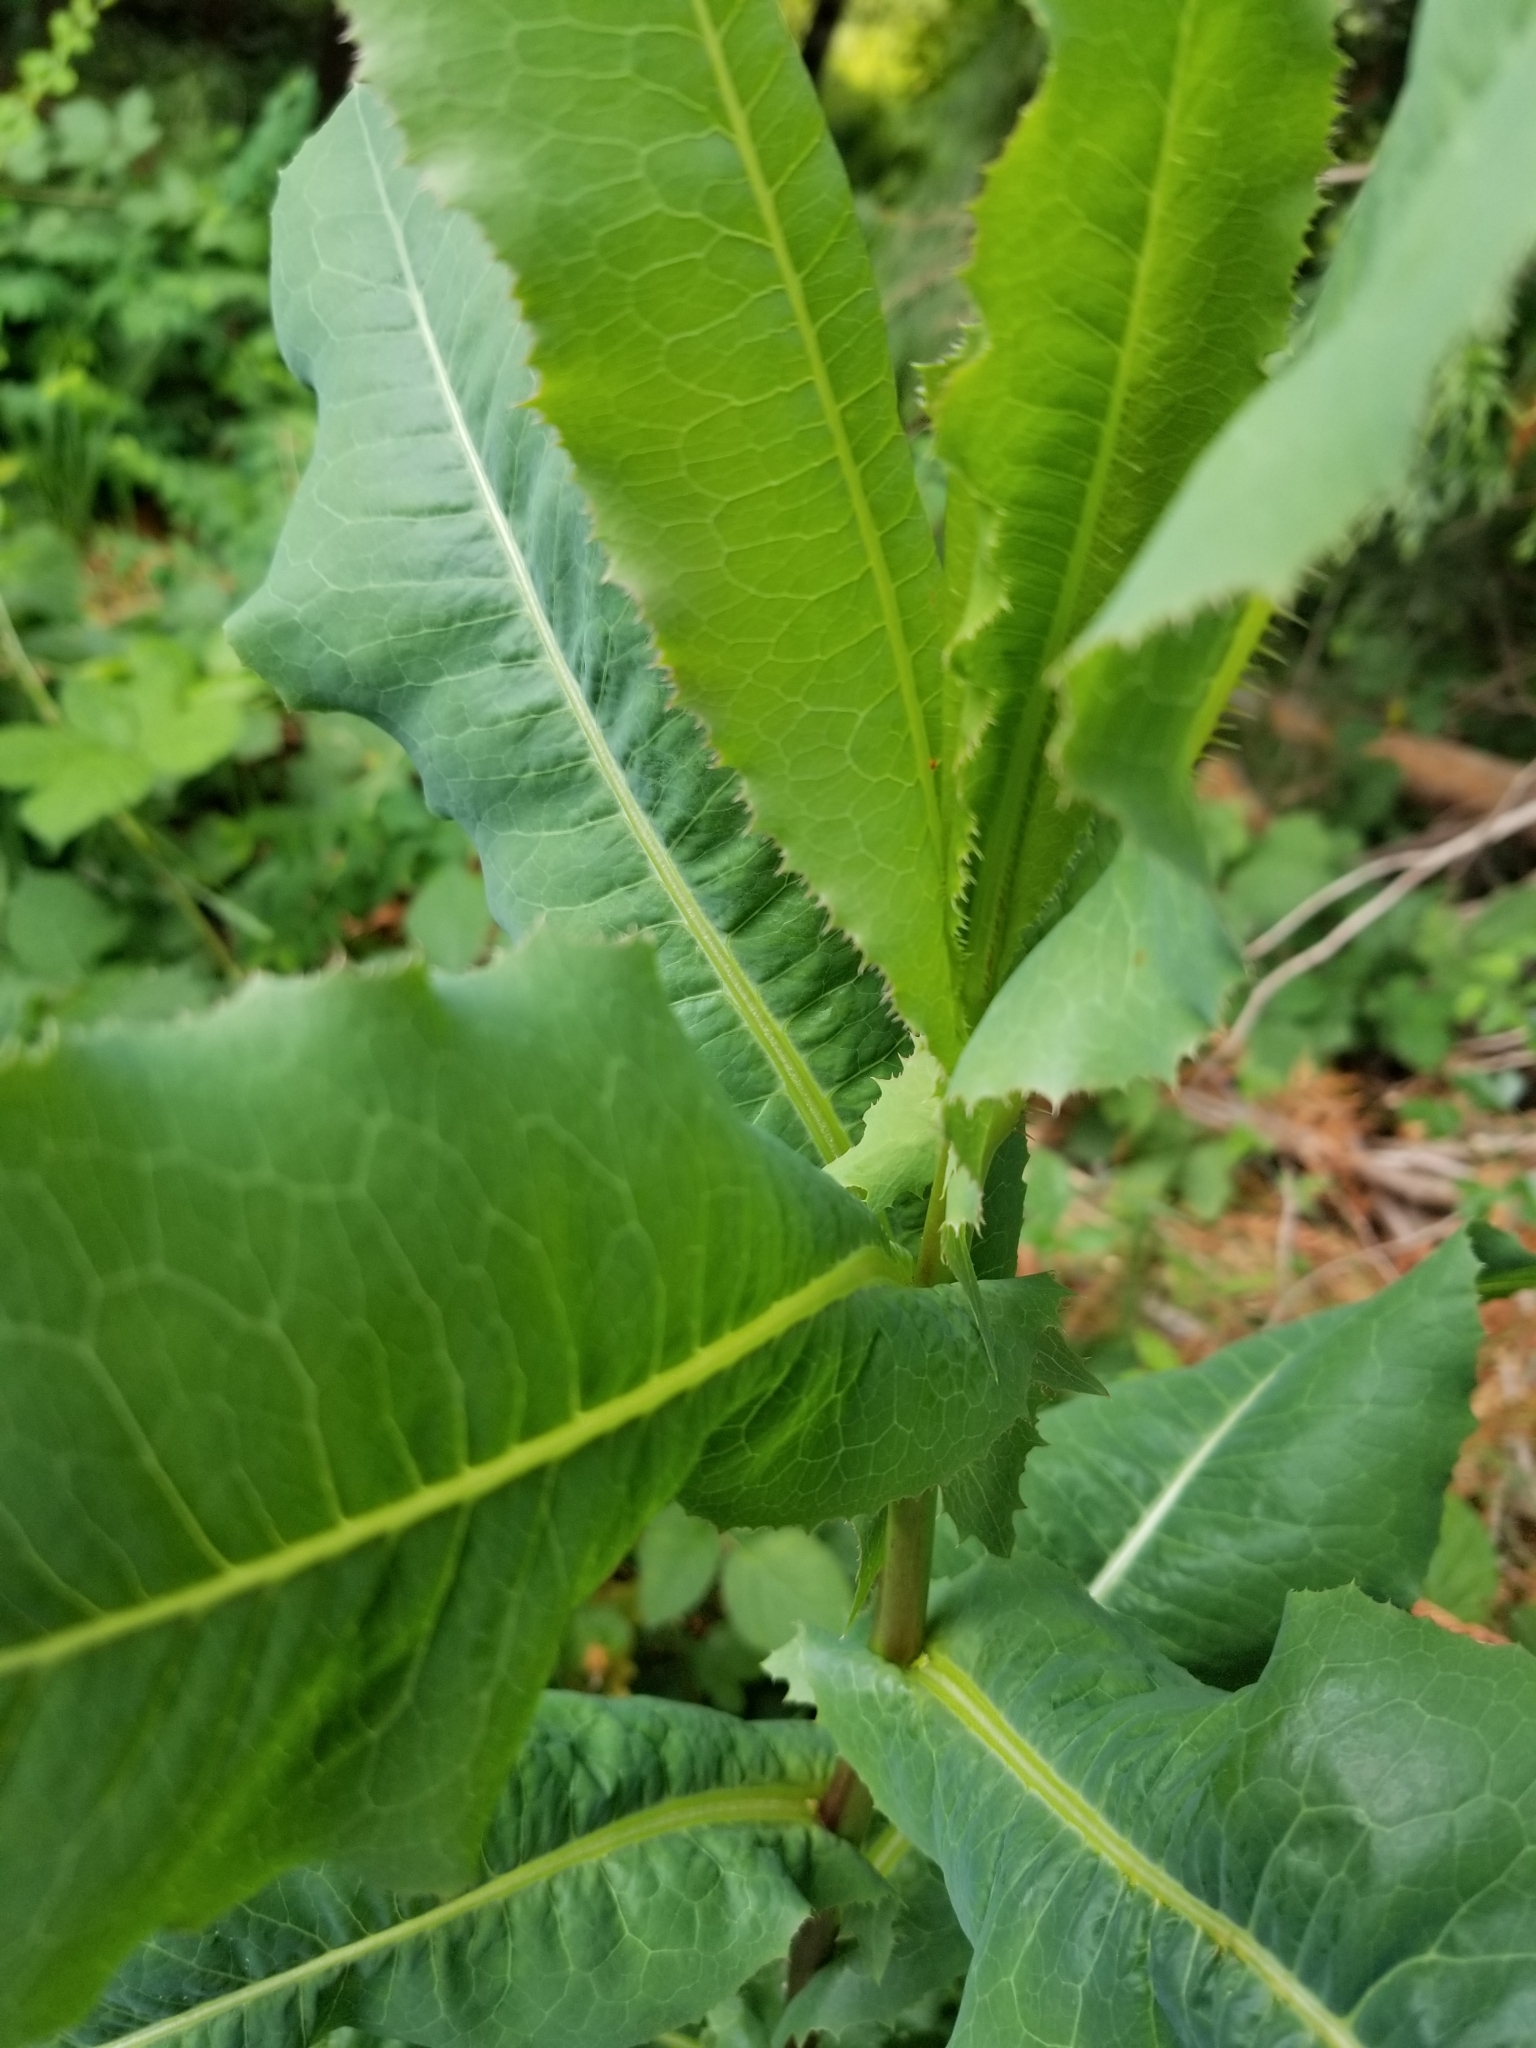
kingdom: Plantae
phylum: Tracheophyta
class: Magnoliopsida
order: Asterales
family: Asteraceae
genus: Lactuca
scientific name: Lactuca serriola
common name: Prickly lettuce
